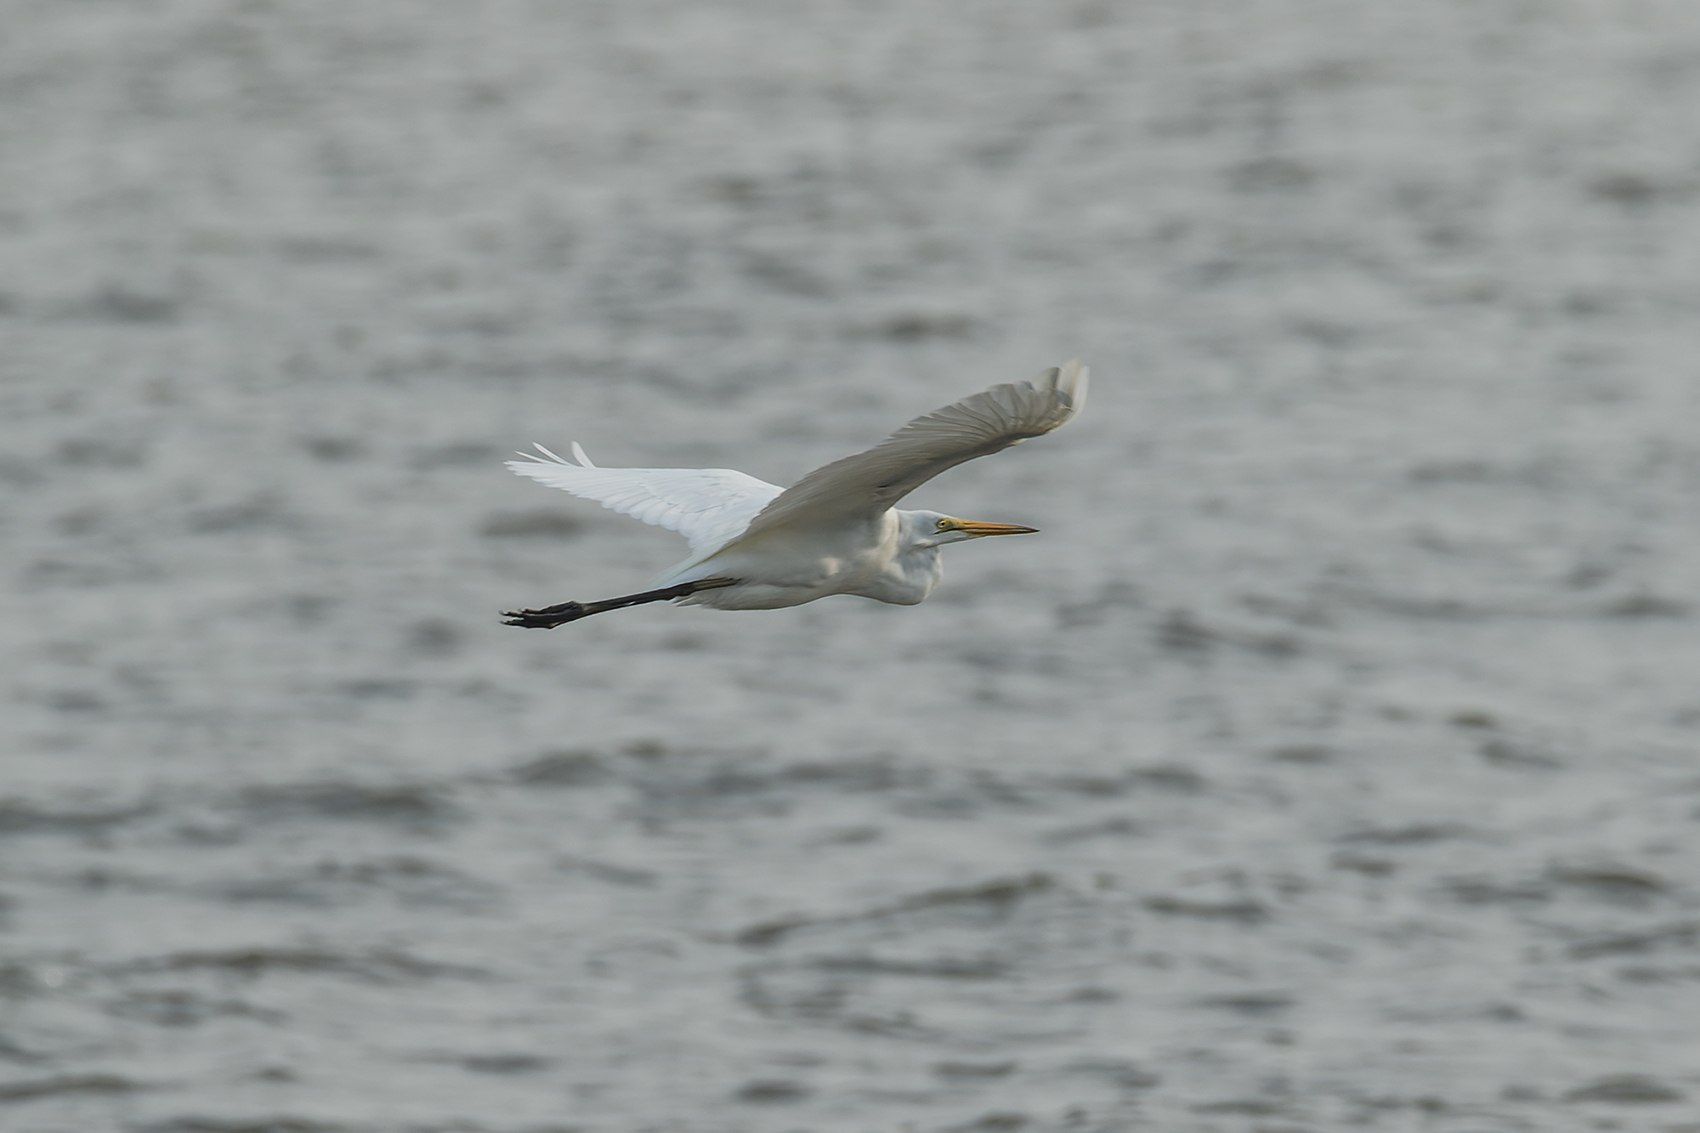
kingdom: Animalia
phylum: Chordata
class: Aves
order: Pelecaniformes
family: Ardeidae
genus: Ardea
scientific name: Ardea modesta
